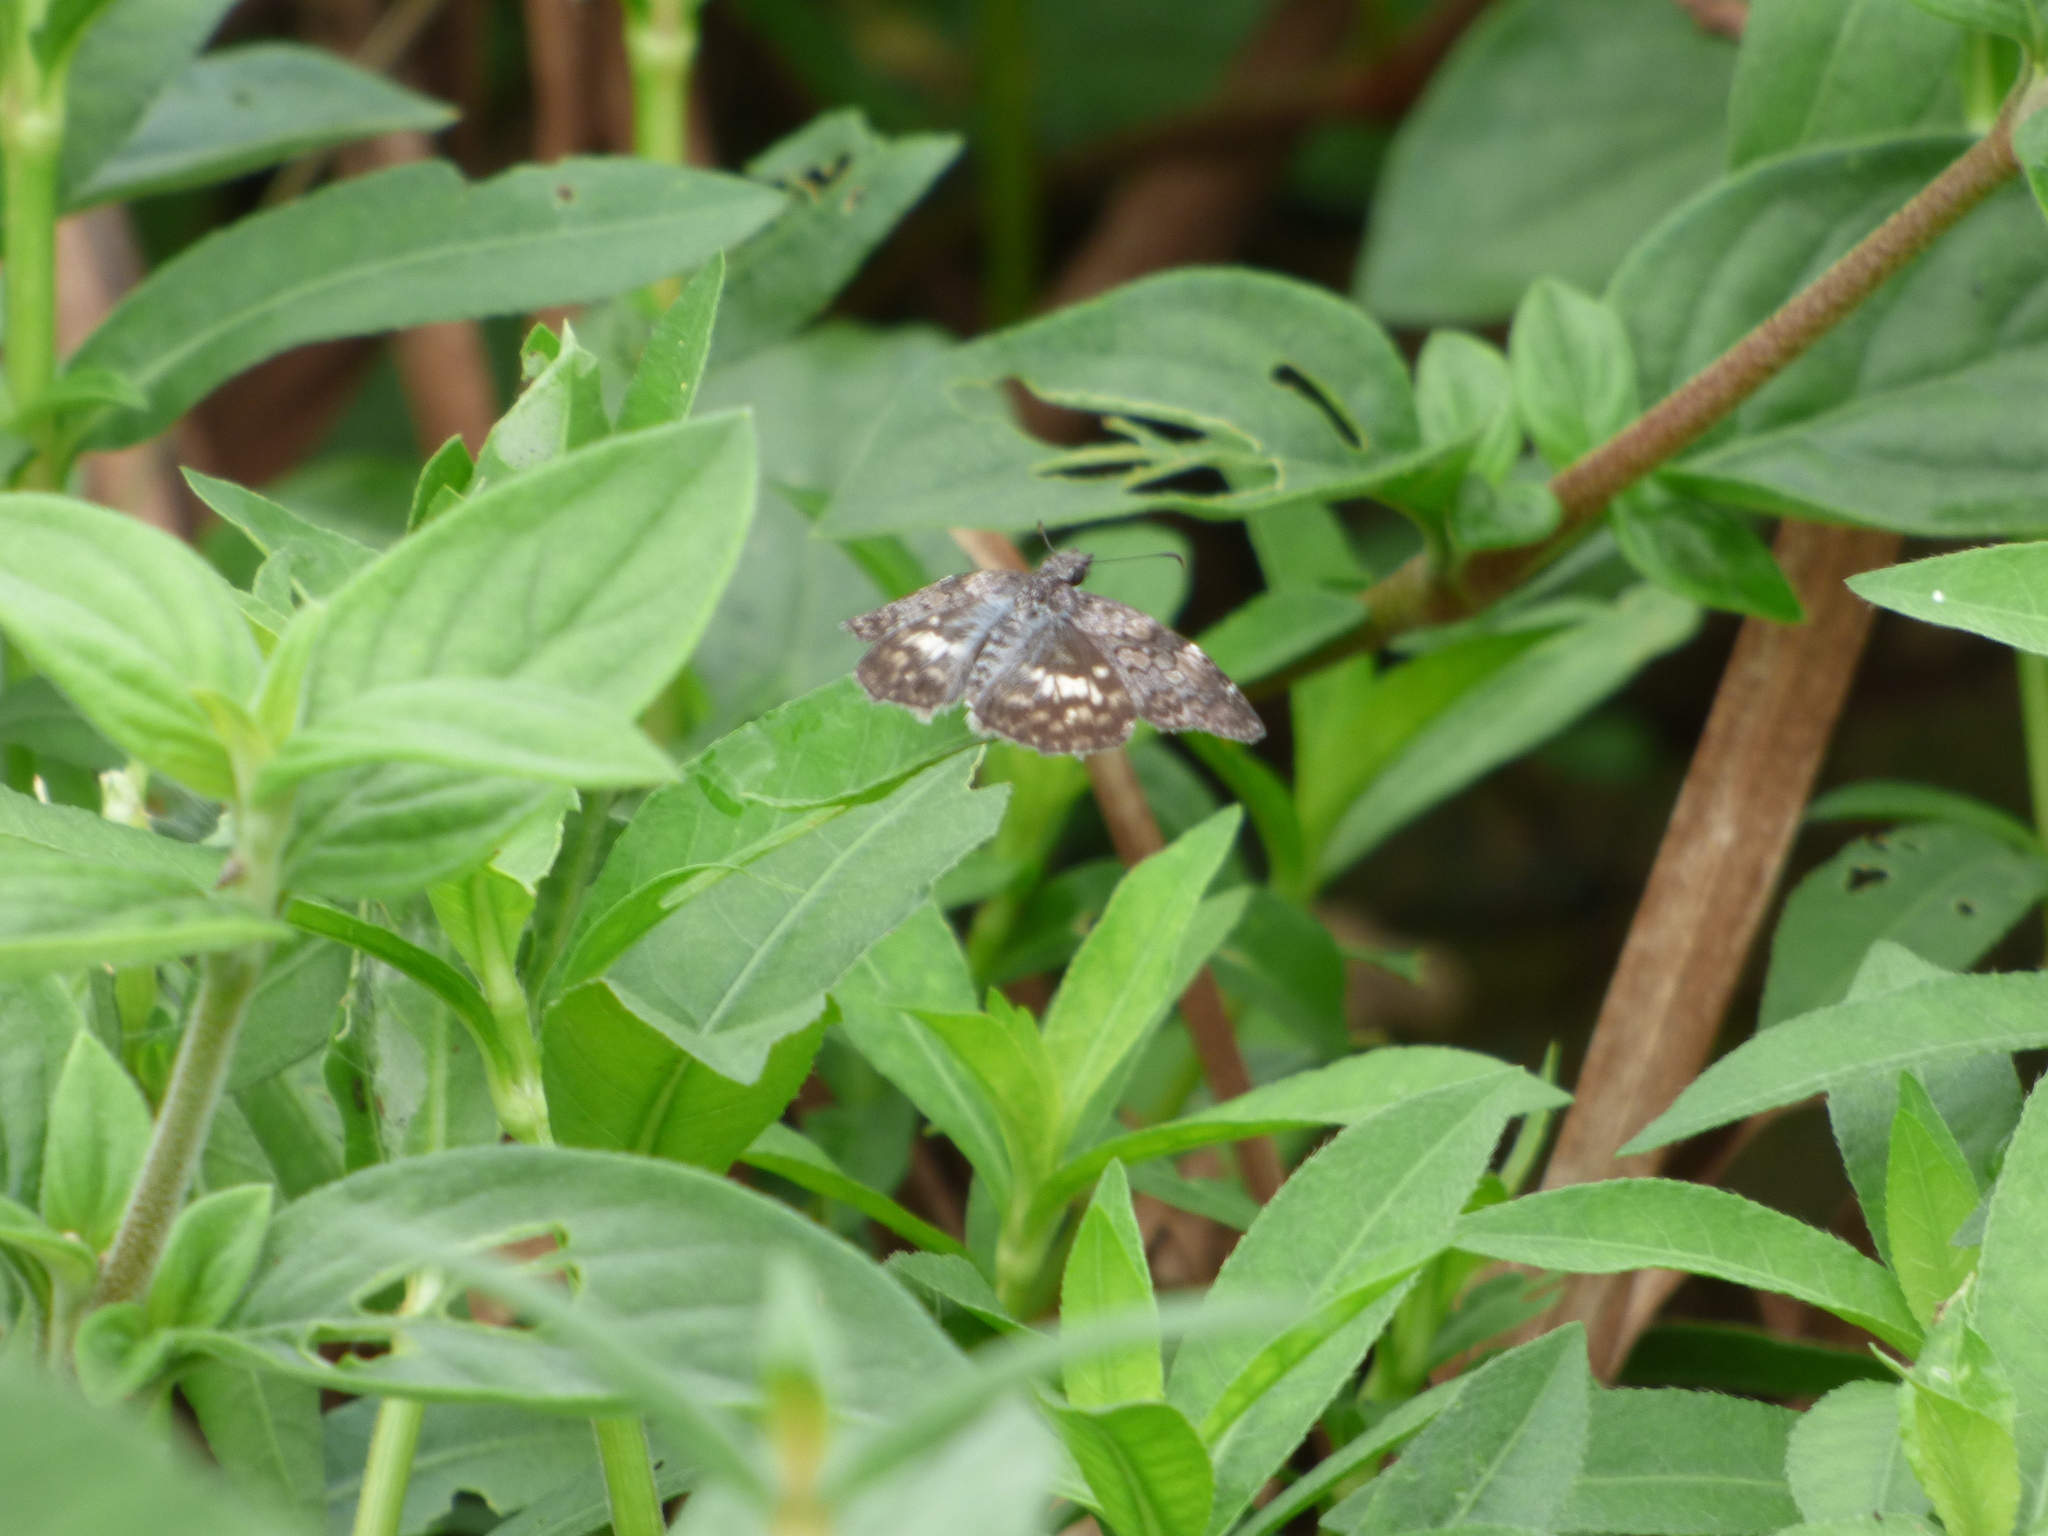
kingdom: Animalia
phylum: Arthropoda
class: Insecta
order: Lepidoptera
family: Hesperiidae
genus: Chiomara
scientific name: Chiomara asychis
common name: White-patterned skipper
